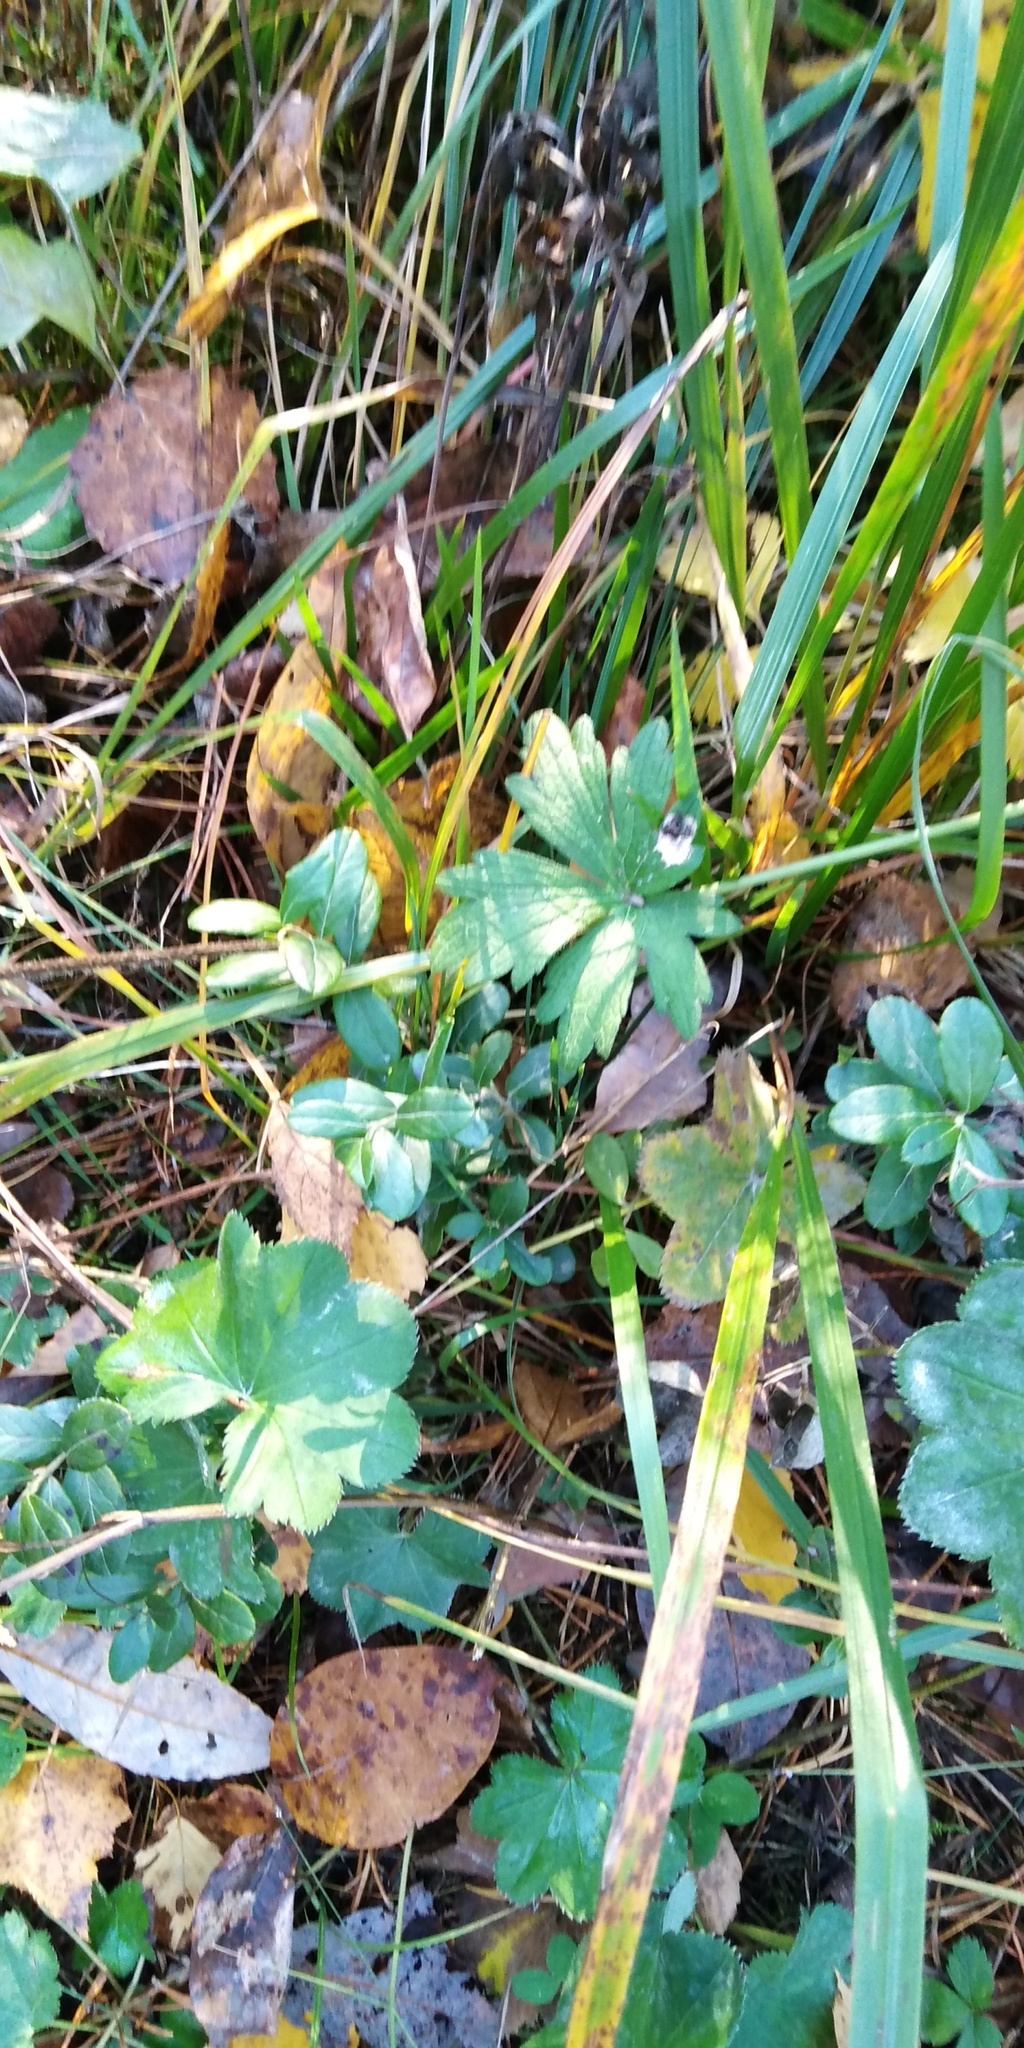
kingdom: Plantae
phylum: Tracheophyta
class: Magnoliopsida
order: Ericales
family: Ericaceae
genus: Vaccinium
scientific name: Vaccinium vitis-idaea
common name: Cowberry
